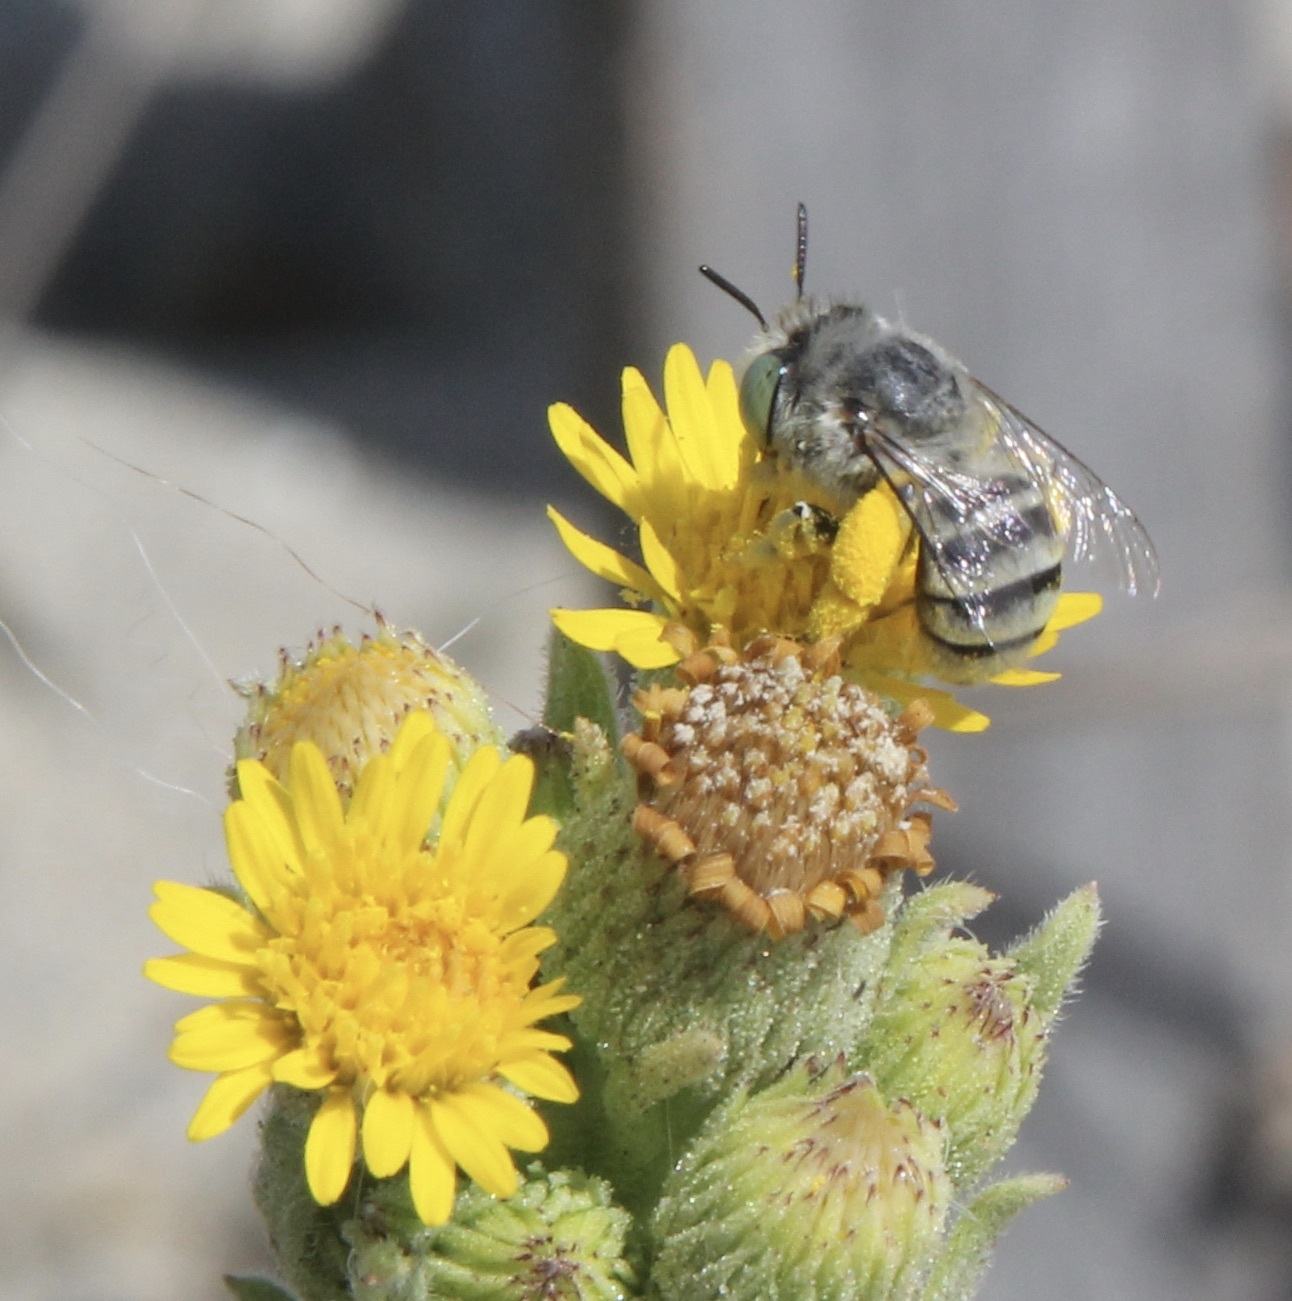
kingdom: Plantae
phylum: Tracheophyta
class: Magnoliopsida
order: Asterales
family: Asteraceae
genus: Heterotheca
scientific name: Heterotheca grandiflora
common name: Telegraphweed
